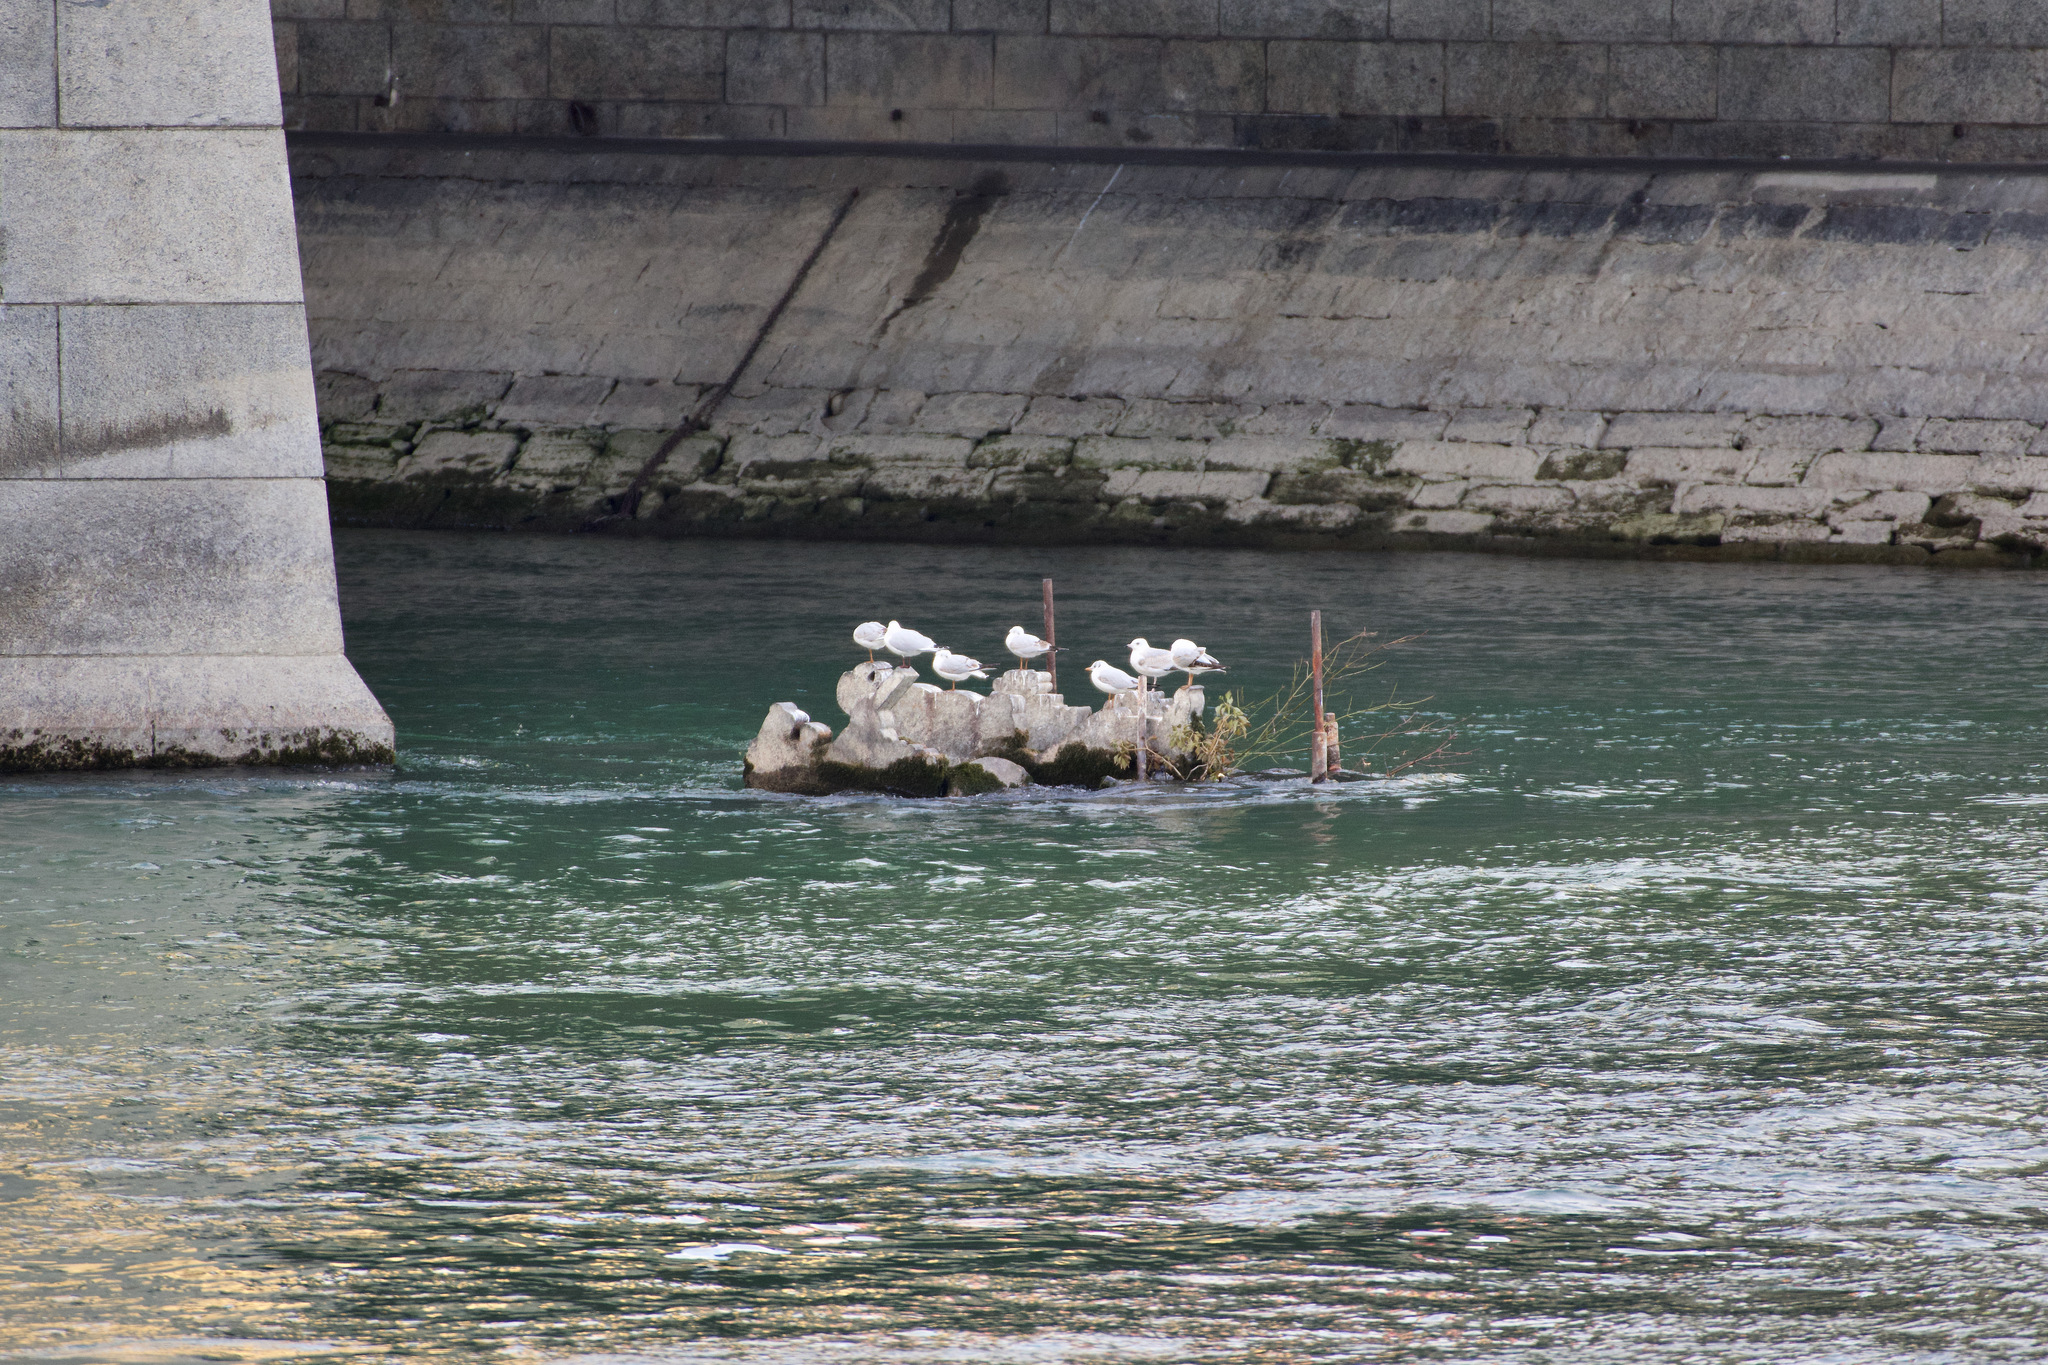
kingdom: Animalia
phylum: Chordata
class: Aves
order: Charadriiformes
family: Laridae
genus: Chroicocephalus
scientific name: Chroicocephalus ridibundus
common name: Black-headed gull
